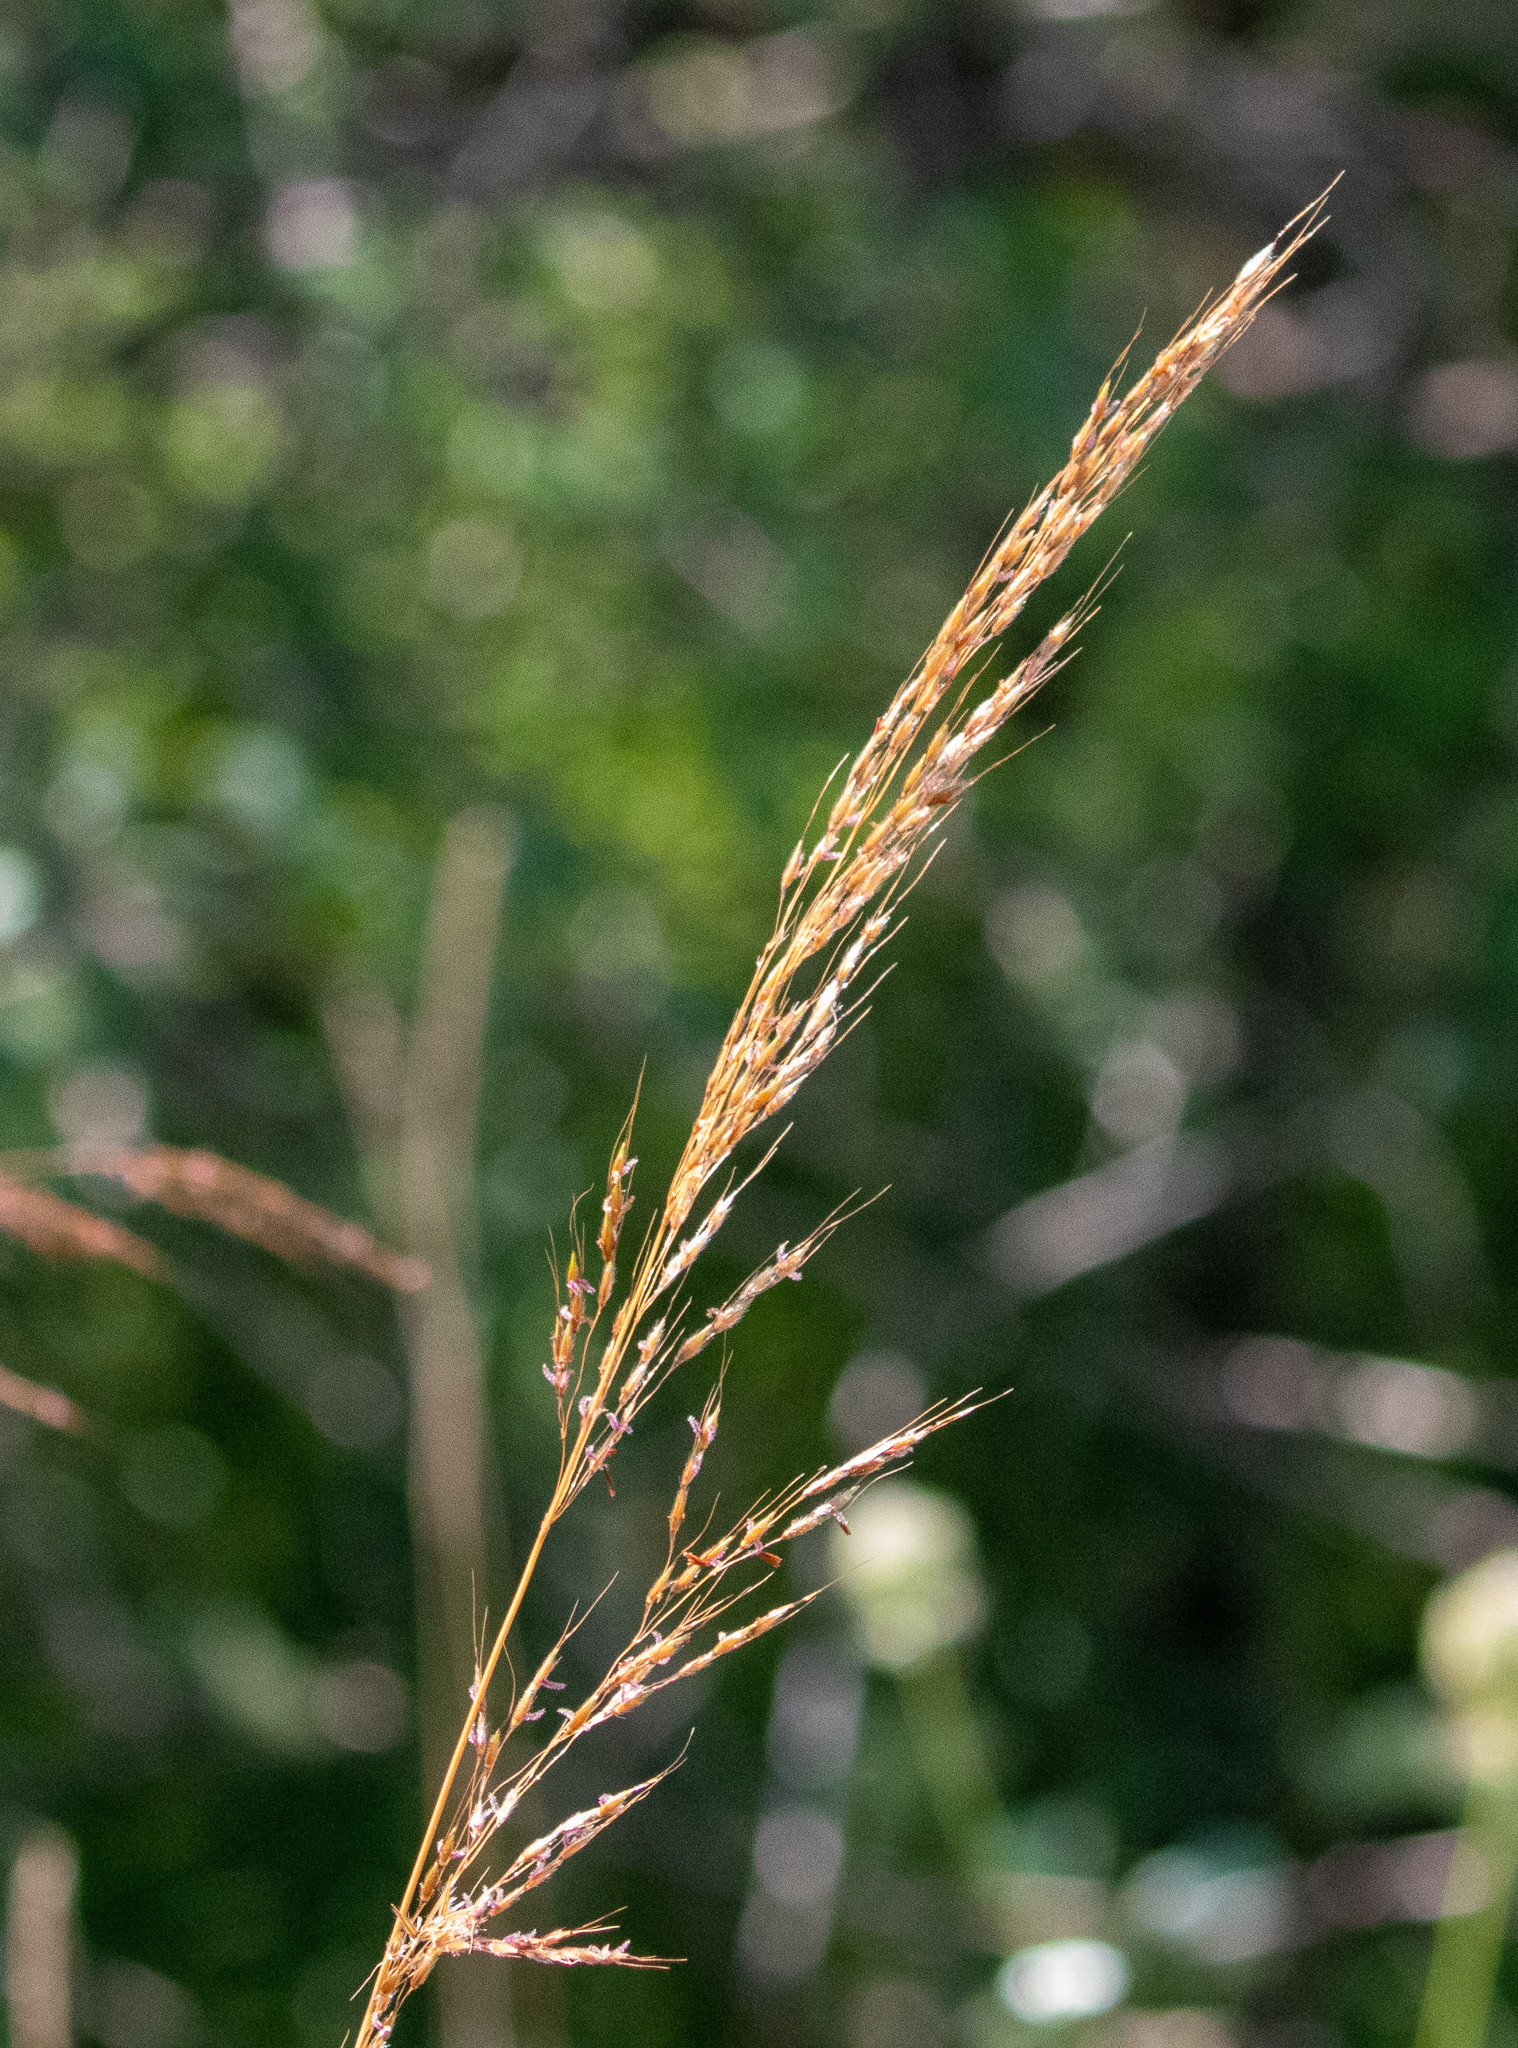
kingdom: Plantae
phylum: Tracheophyta
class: Liliopsida
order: Poales
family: Poaceae
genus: Sorghastrum
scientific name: Sorghastrum nutans
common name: Indian grass
